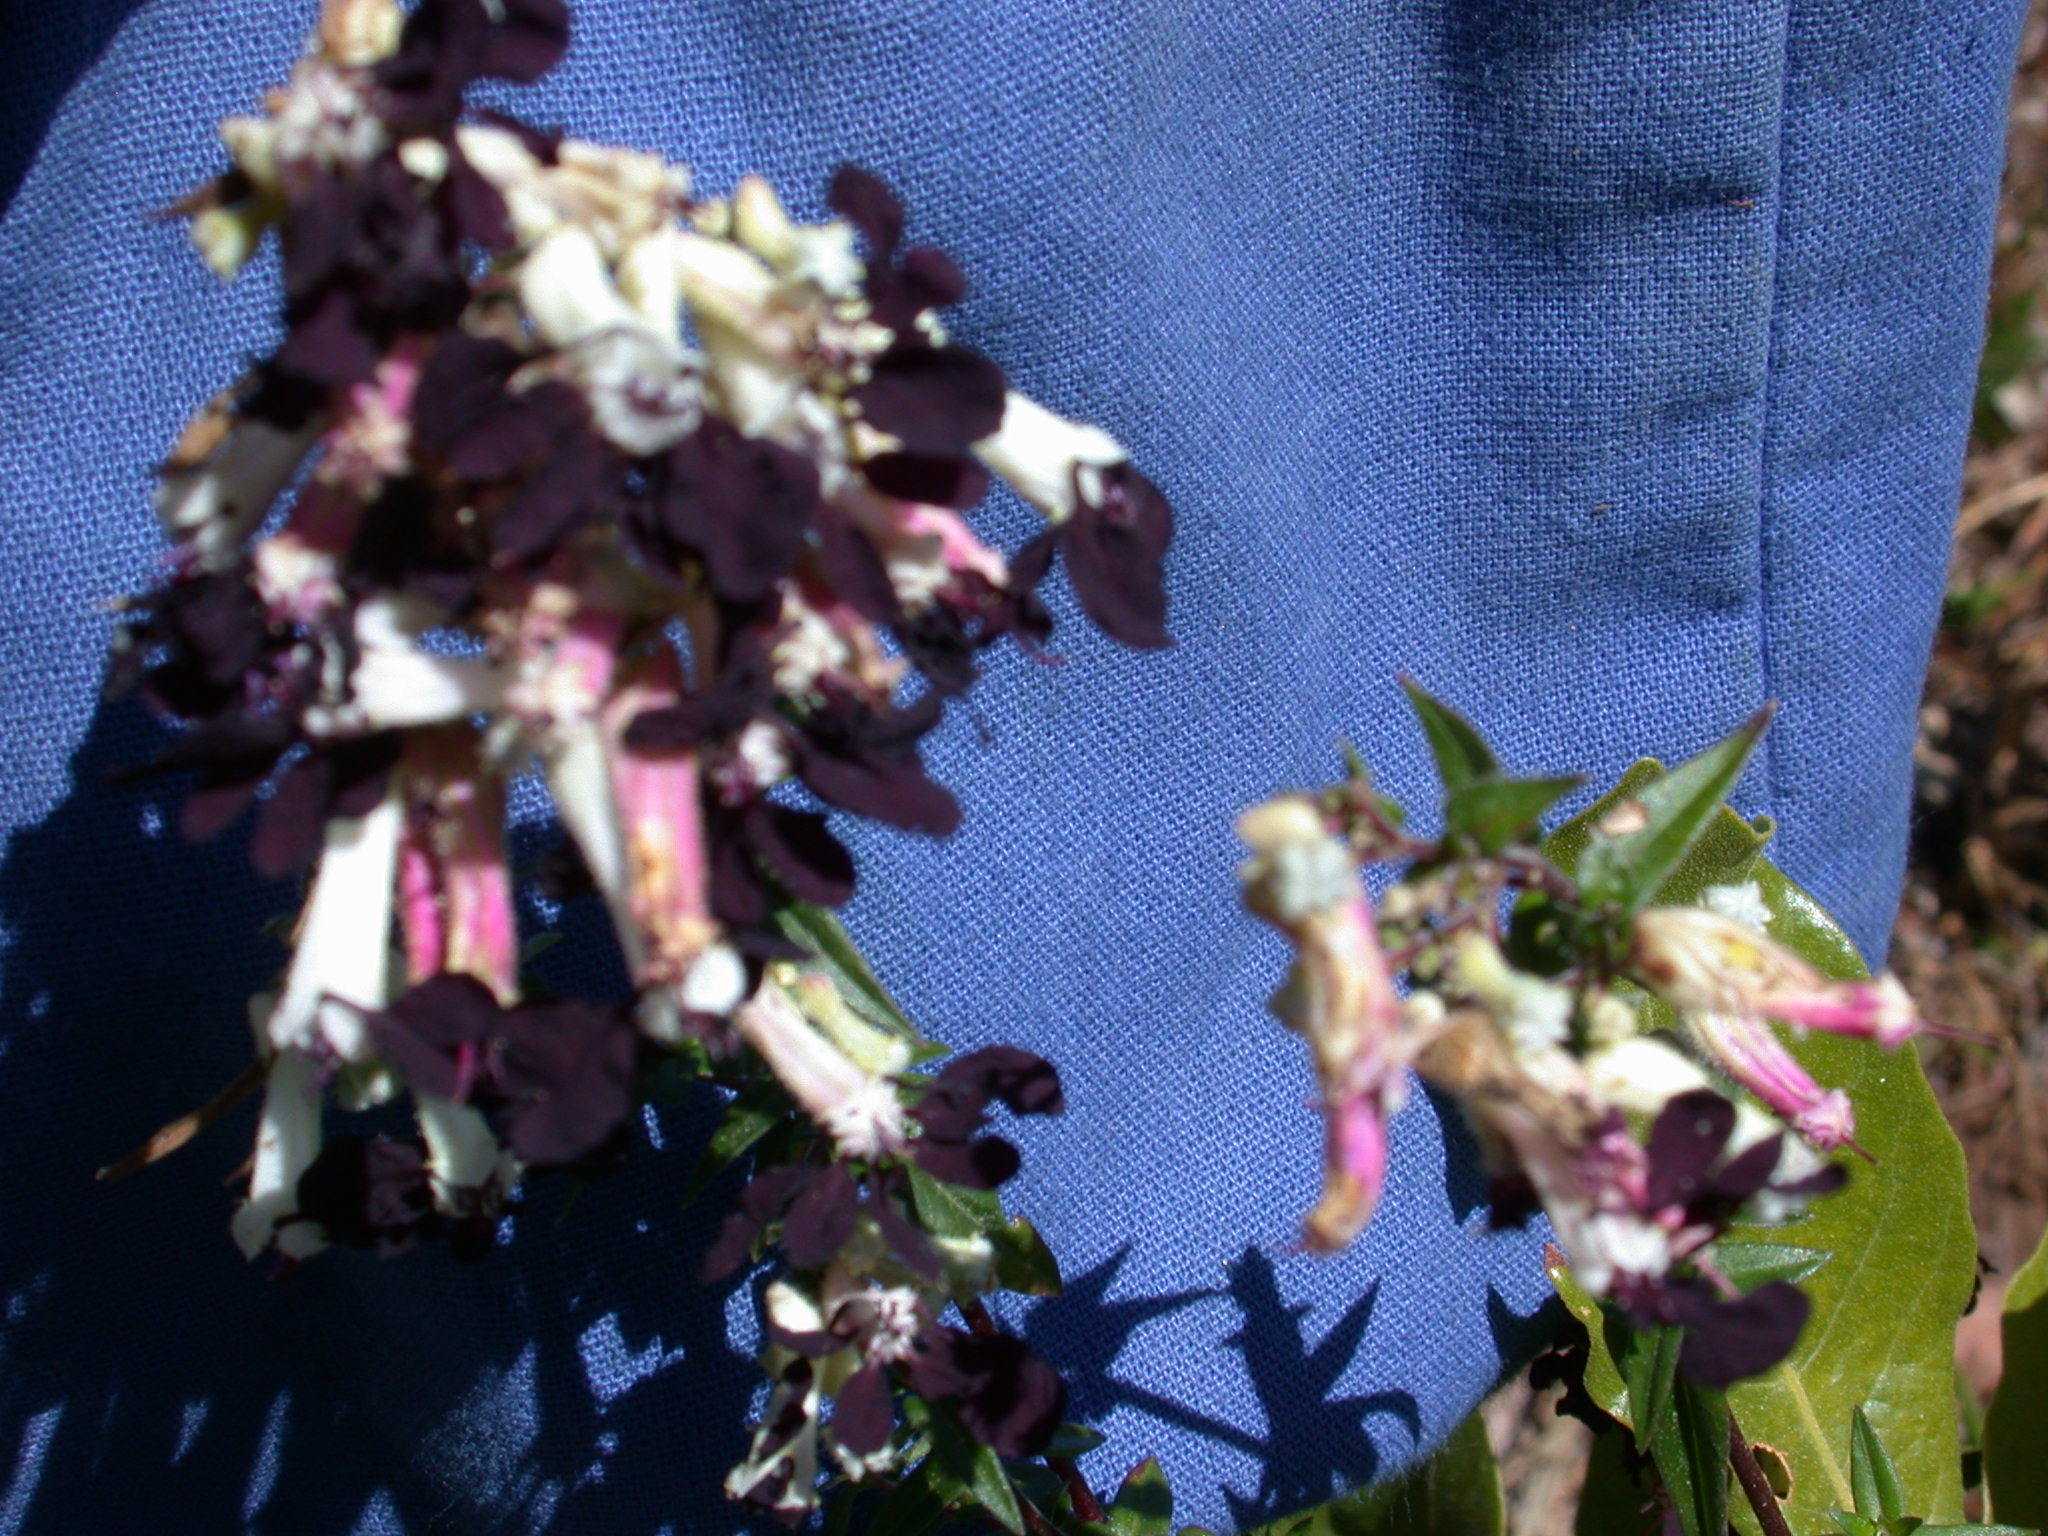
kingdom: Plantae
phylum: Tracheophyta
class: Magnoliopsida
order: Myrtales
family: Lythraceae
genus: Cuphea
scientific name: Cuphea avigera
